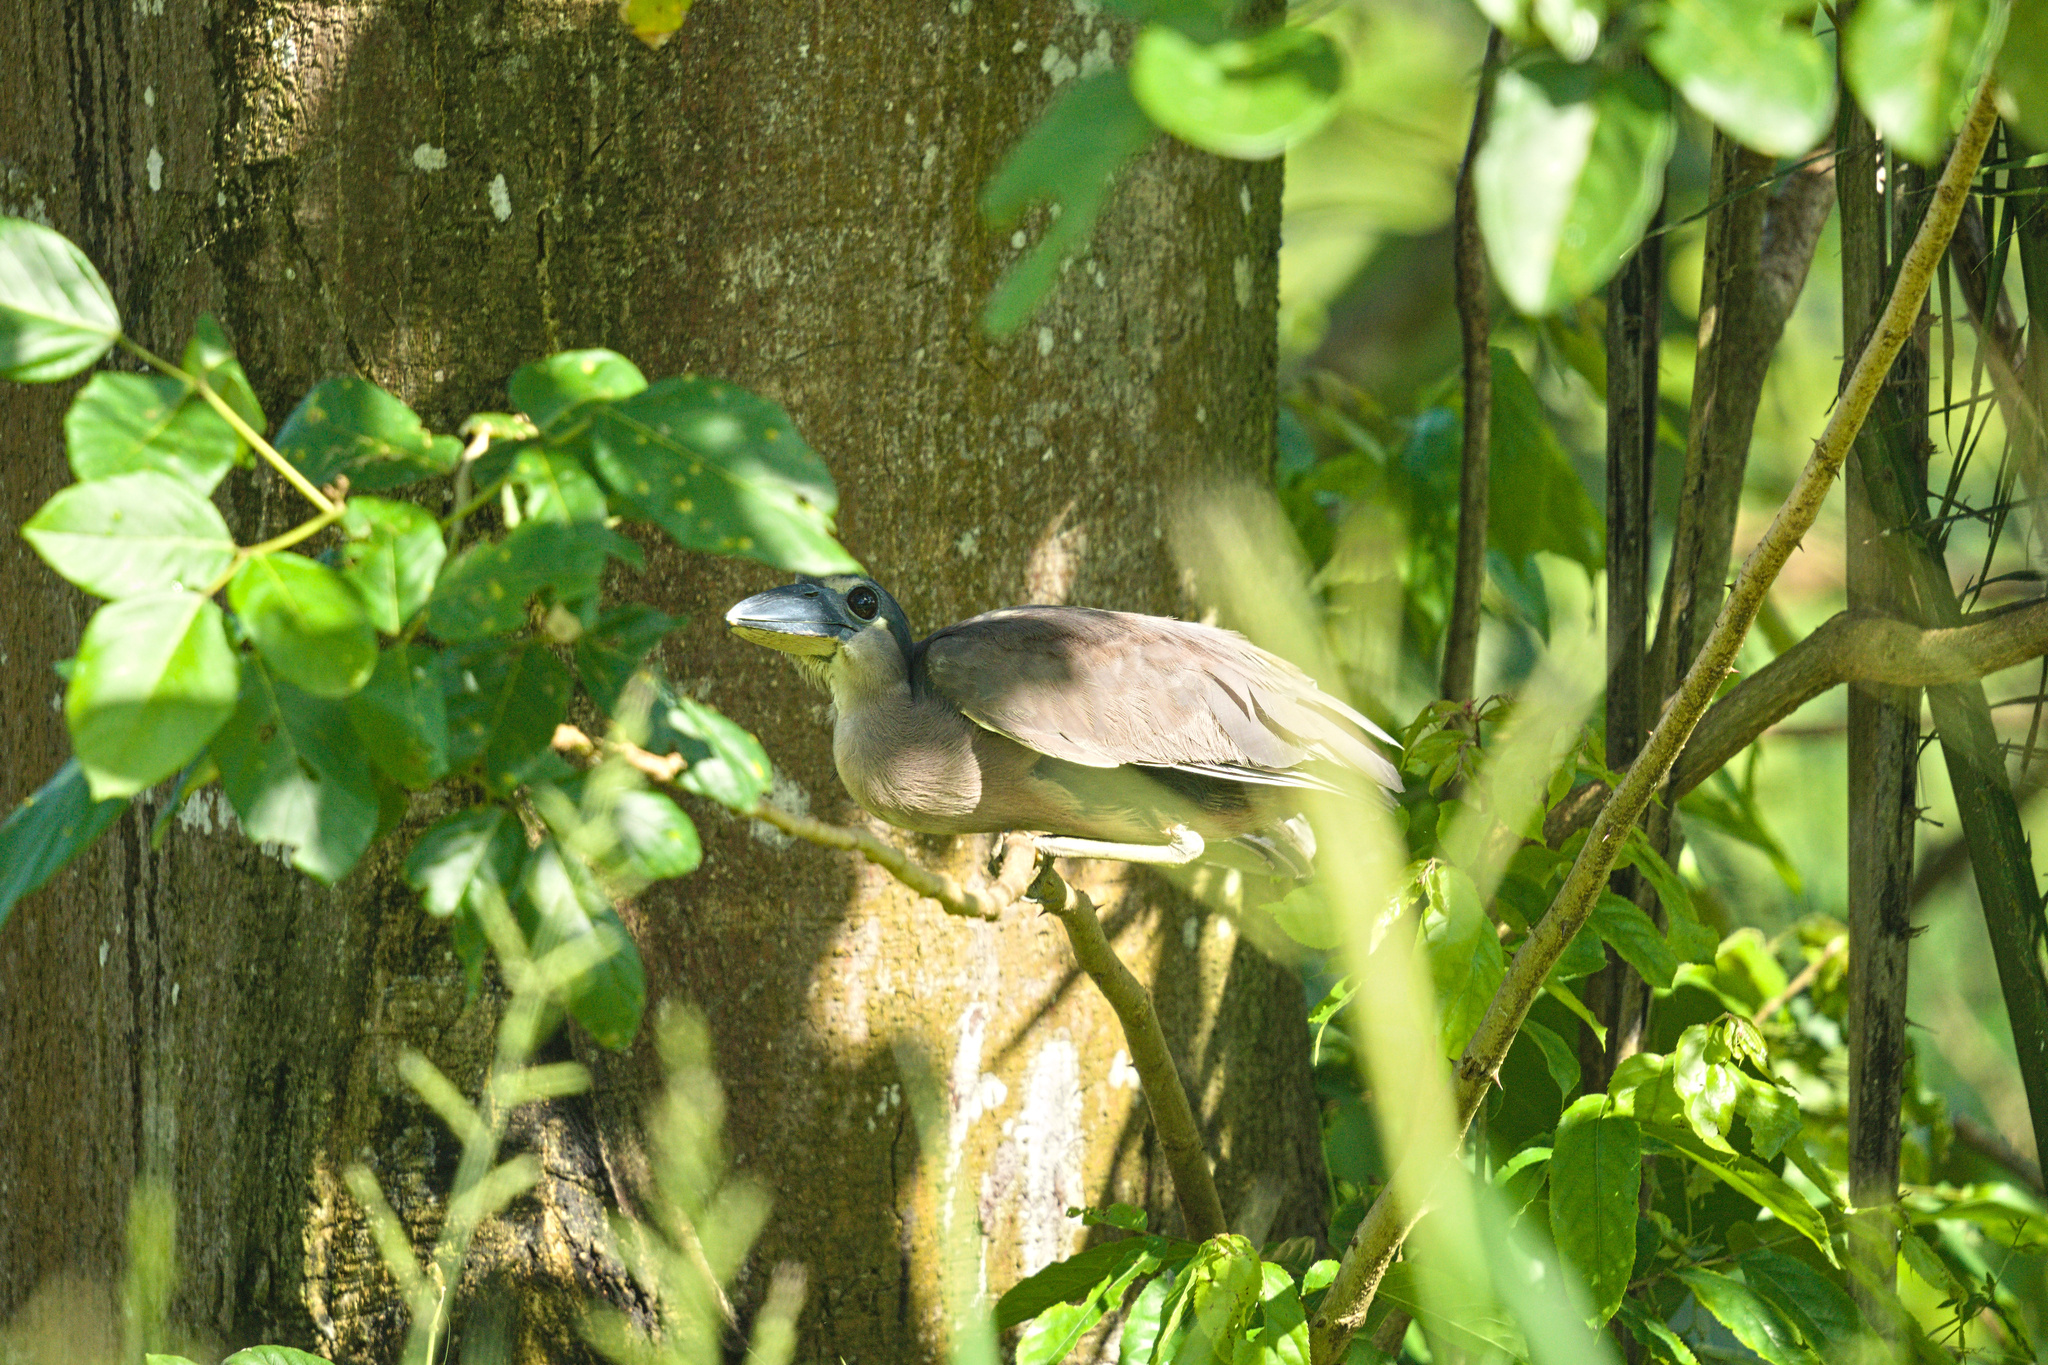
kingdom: Animalia
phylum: Chordata
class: Aves
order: Pelecaniformes
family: Ardeidae
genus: Cochlearius
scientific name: Cochlearius cochlearius
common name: Boat-billed heron
